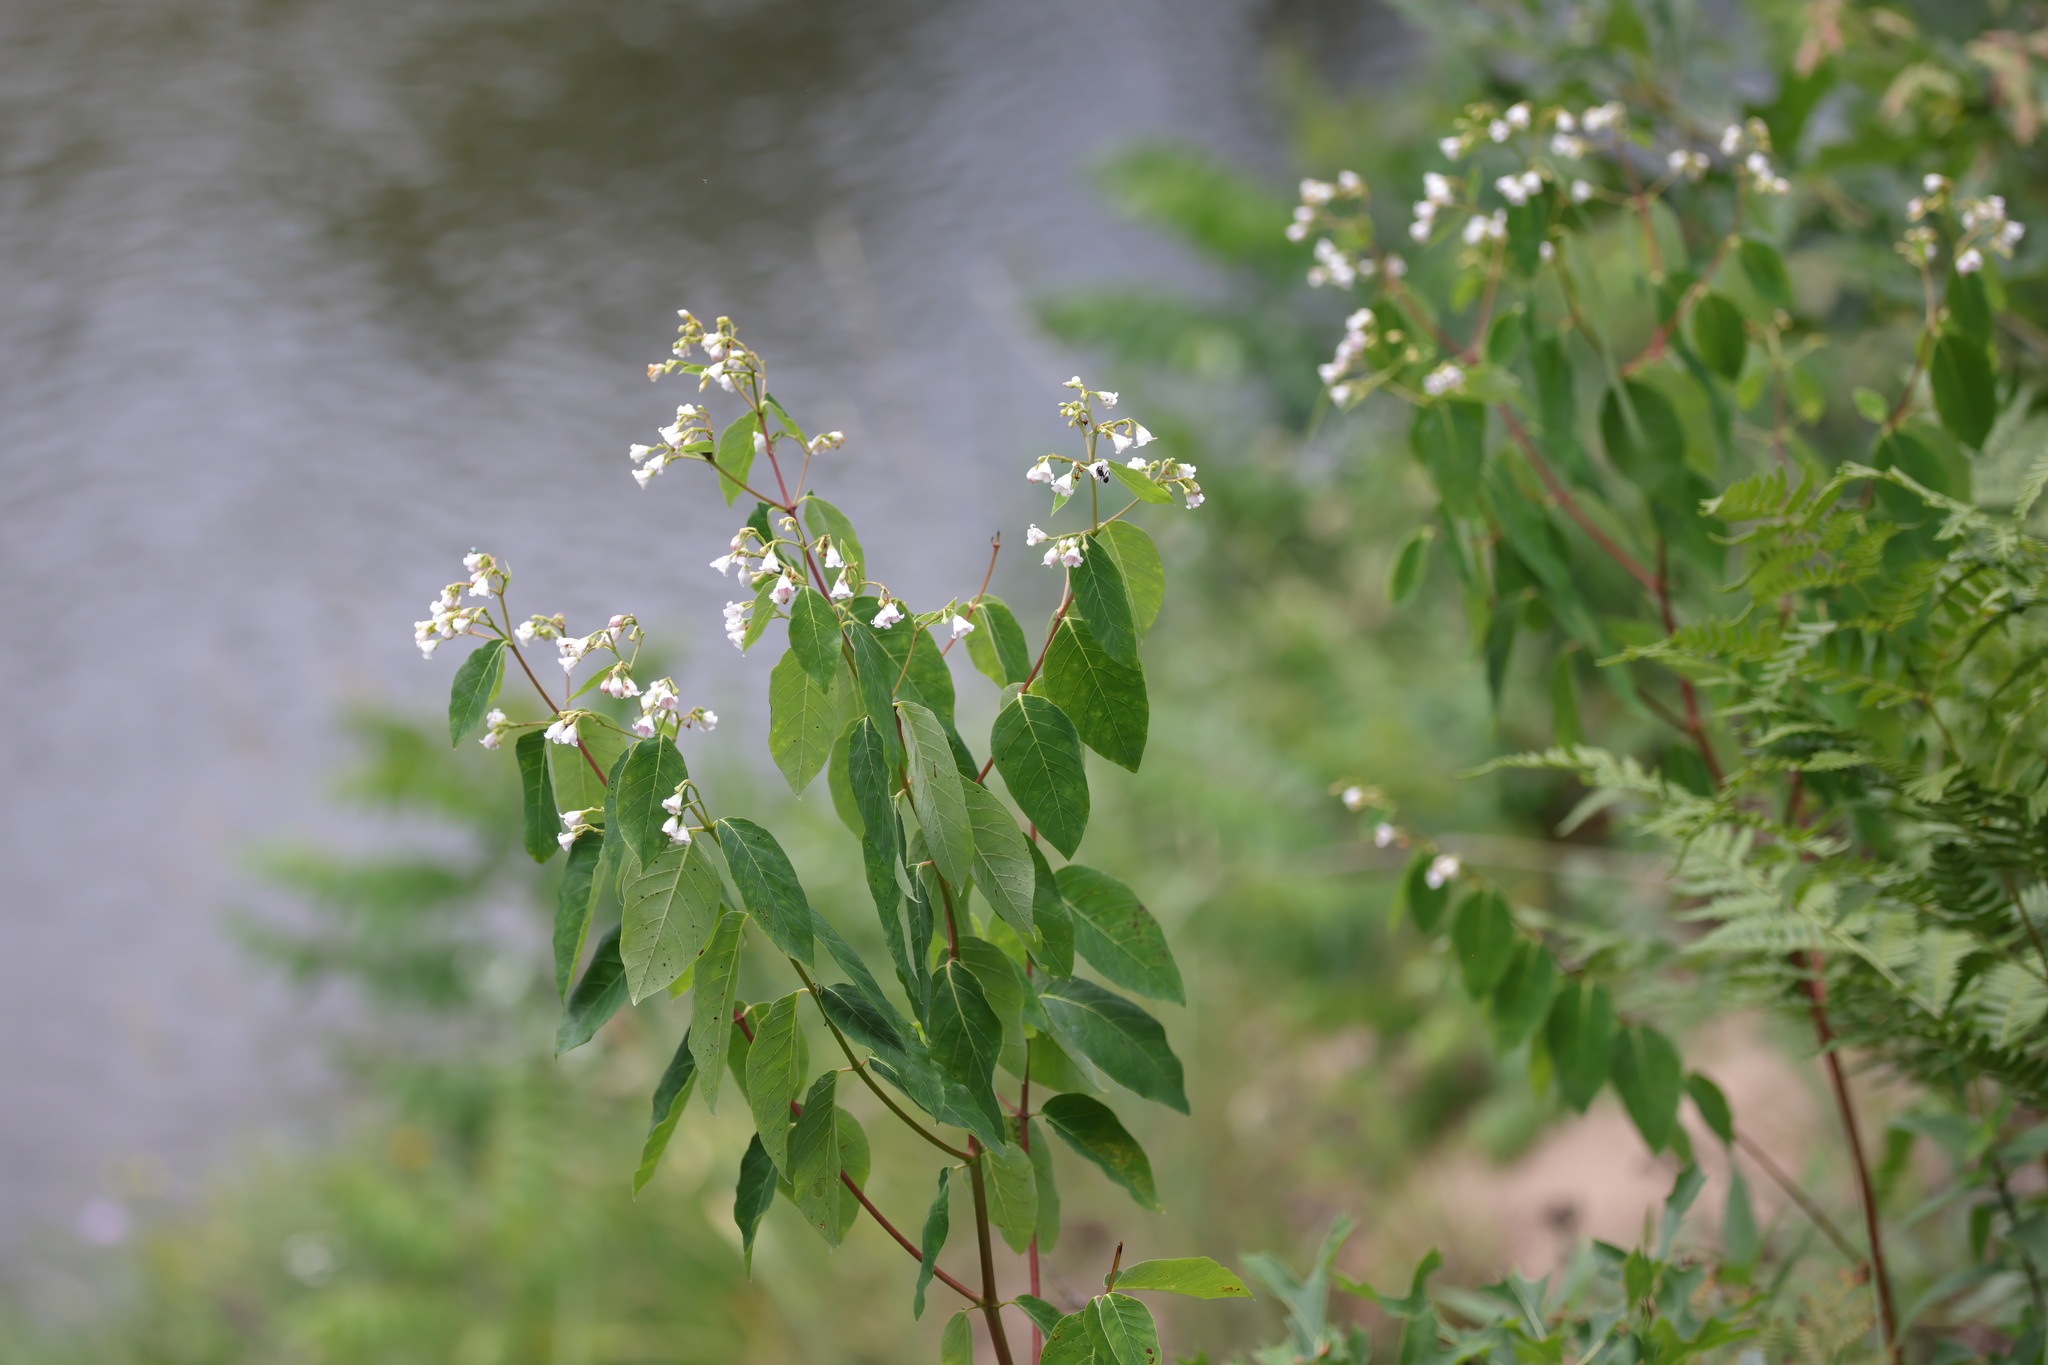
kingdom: Plantae
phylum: Tracheophyta
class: Magnoliopsida
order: Gentianales
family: Apocynaceae
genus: Apocynum
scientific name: Apocynum androsaemifolium
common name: Spreading dogbane
